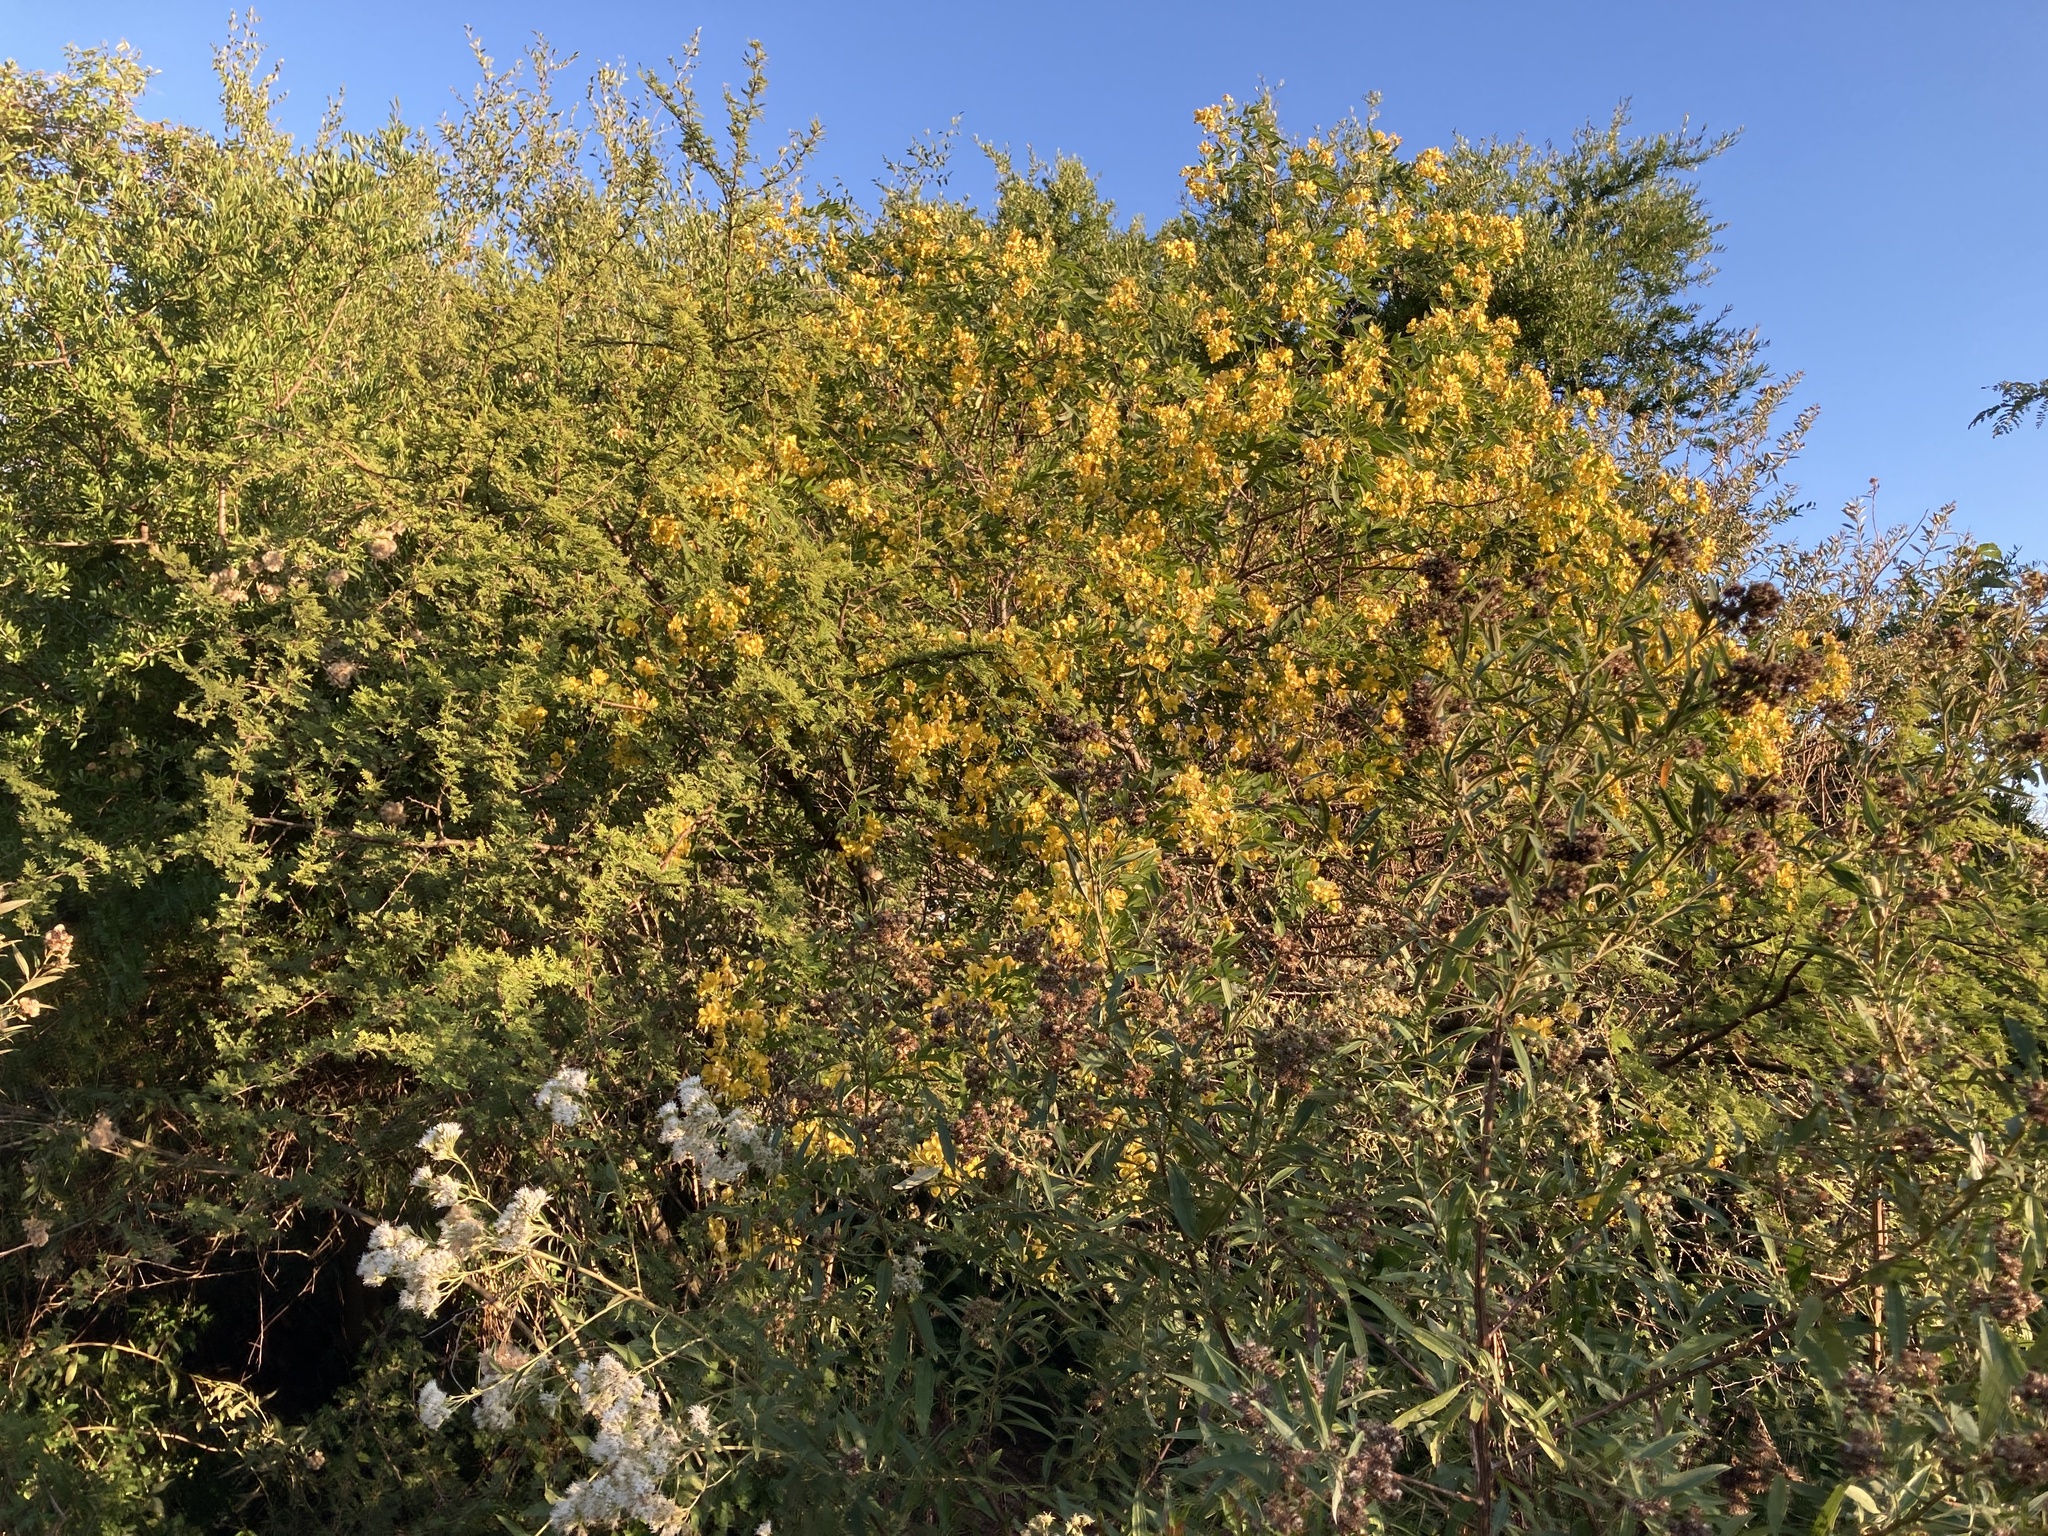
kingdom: Plantae
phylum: Tracheophyta
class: Magnoliopsida
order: Fabales
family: Fabaceae
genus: Senna
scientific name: Senna corymbosa
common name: Argentine senna
